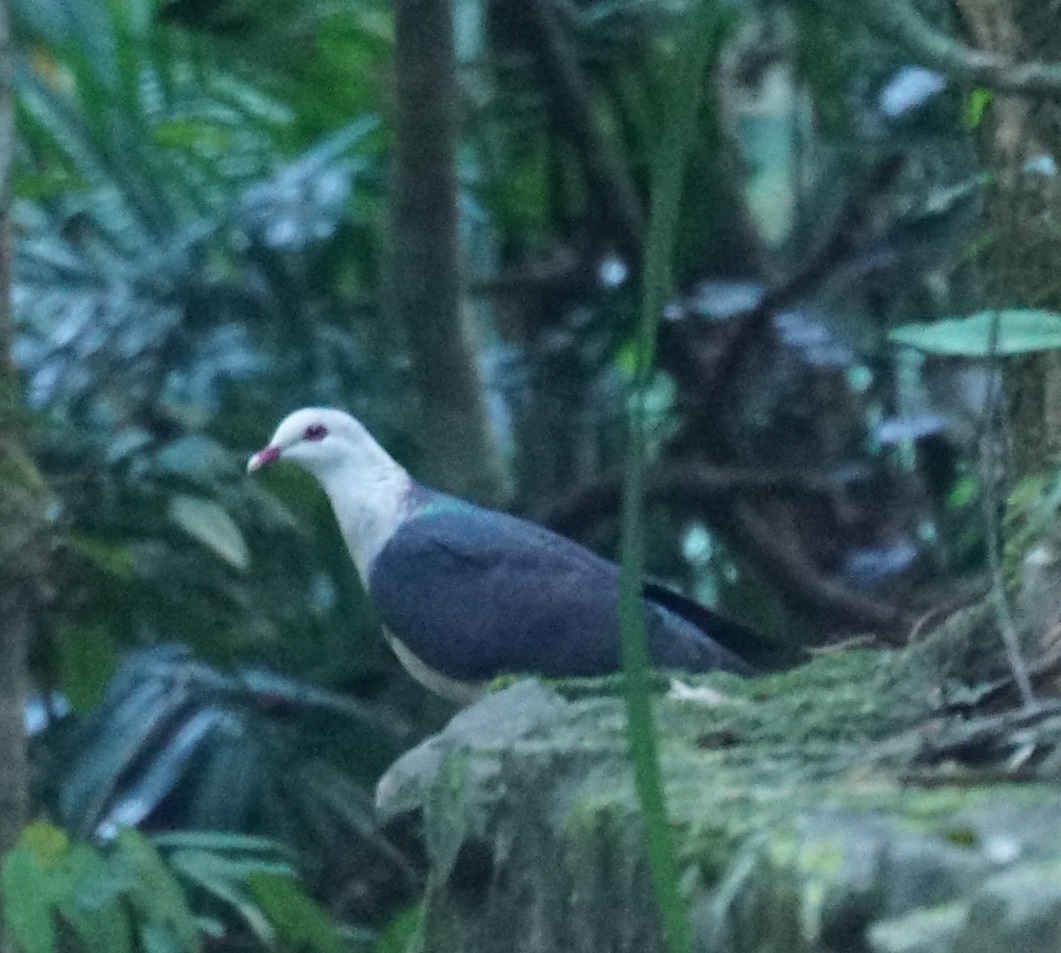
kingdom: Animalia
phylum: Chordata
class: Aves
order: Columbiformes
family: Columbidae
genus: Columba
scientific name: Columba leucomela
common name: White-headed pigeon
